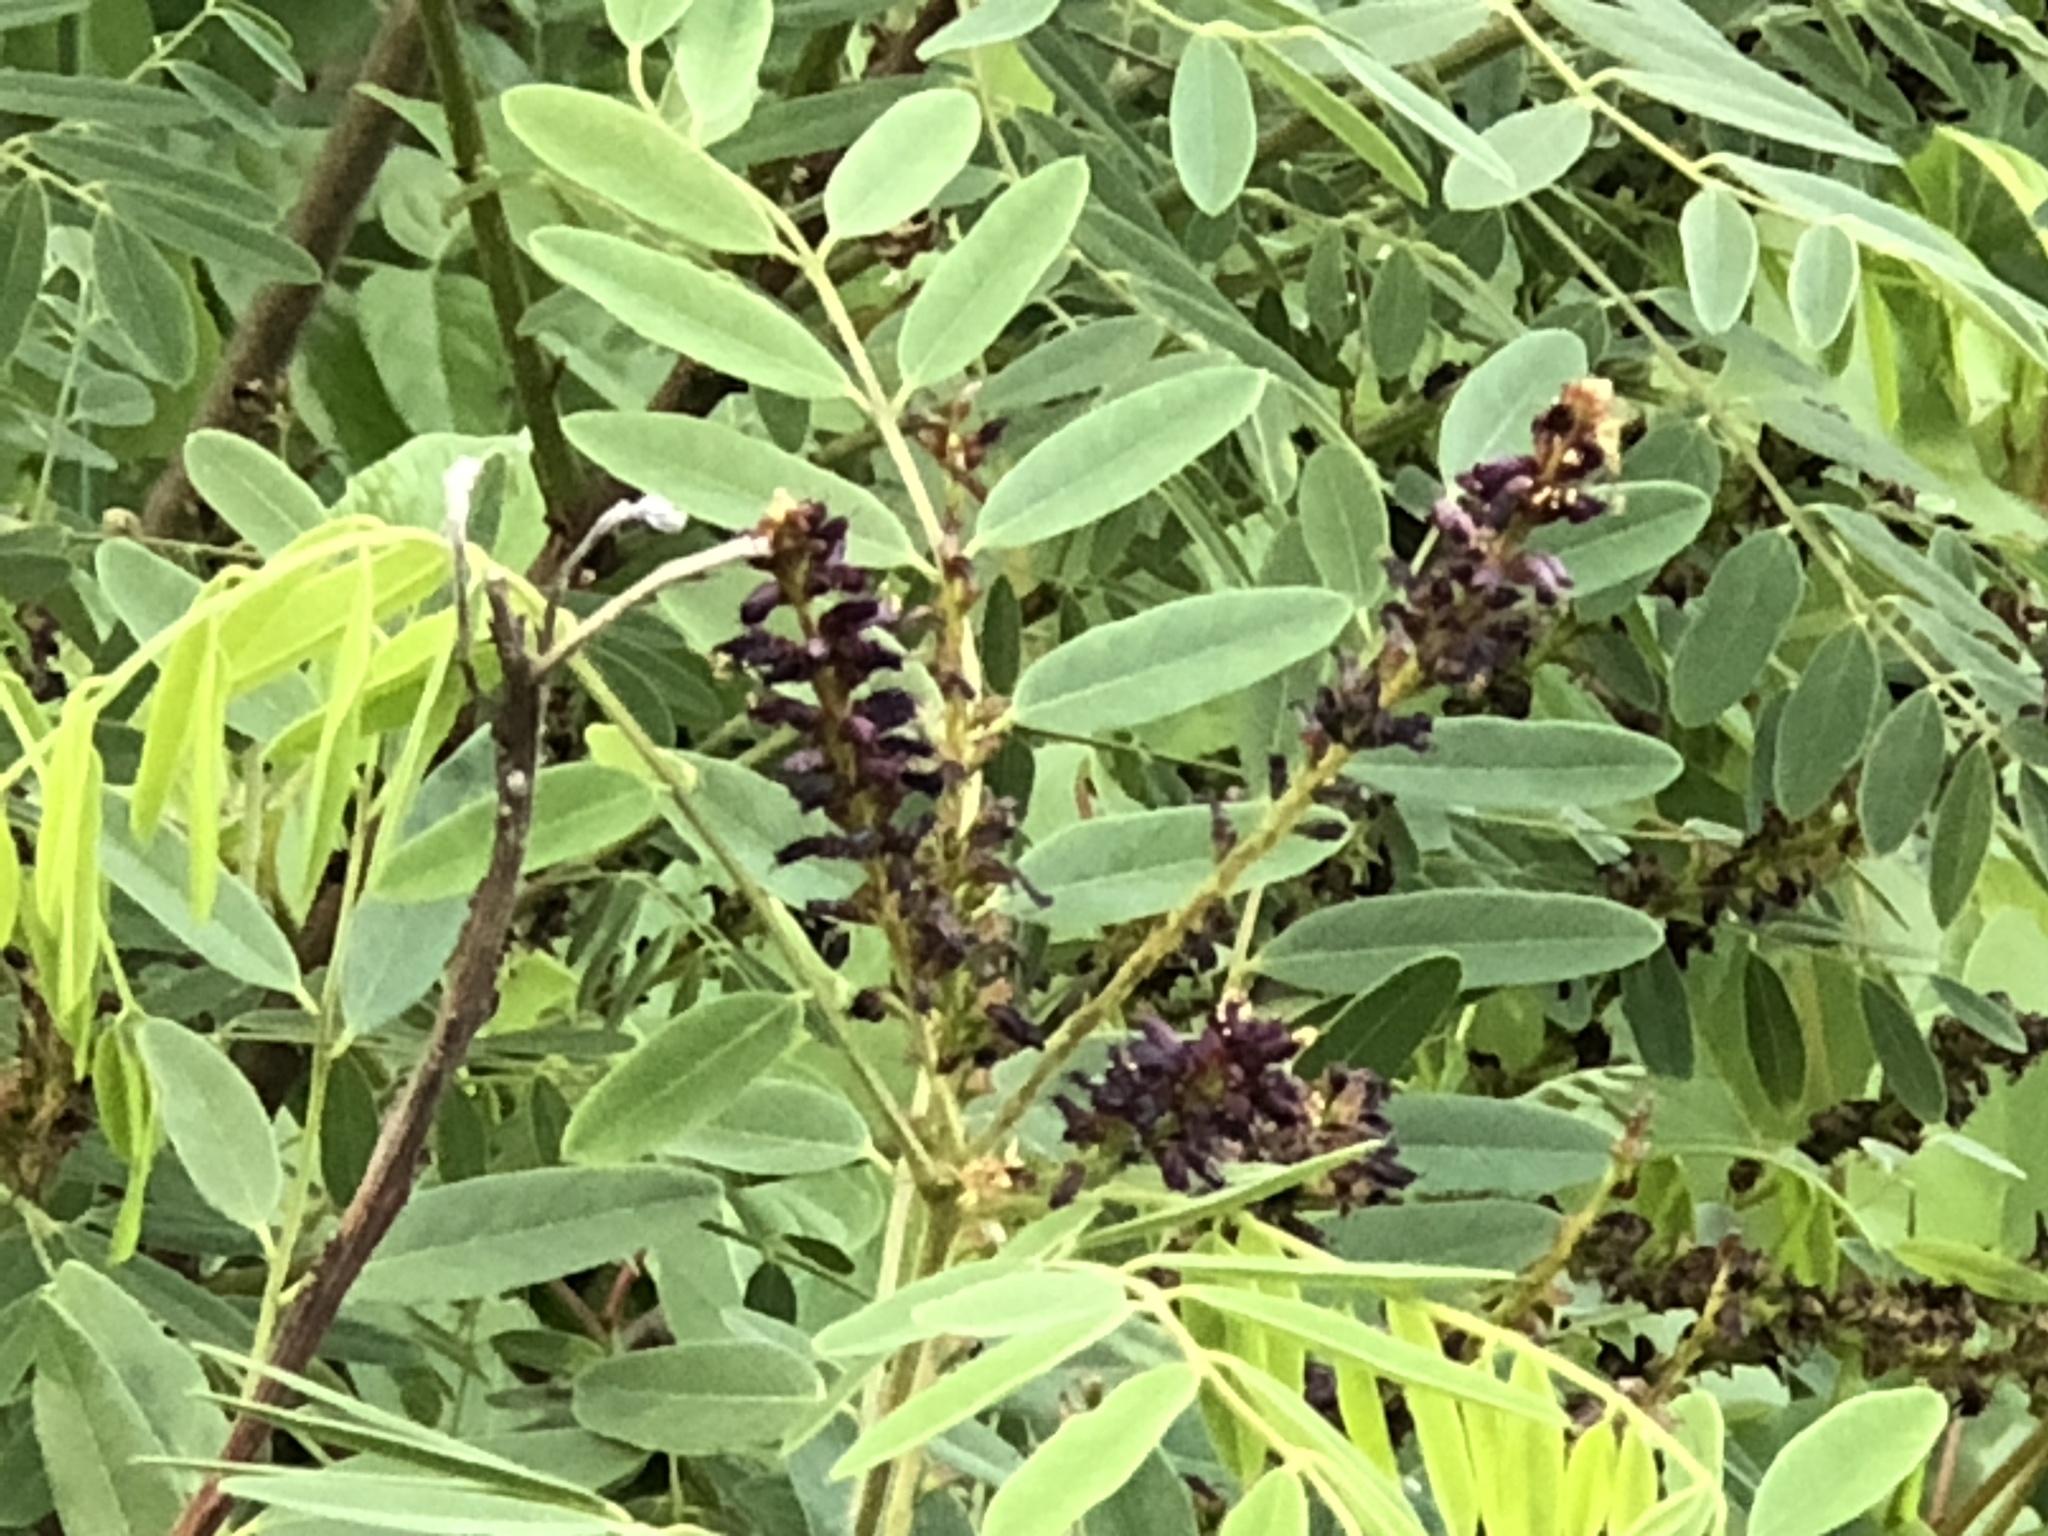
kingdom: Plantae
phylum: Tracheophyta
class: Magnoliopsida
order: Fabales
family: Fabaceae
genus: Amorpha
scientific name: Amorpha fruticosa
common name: False indigo
